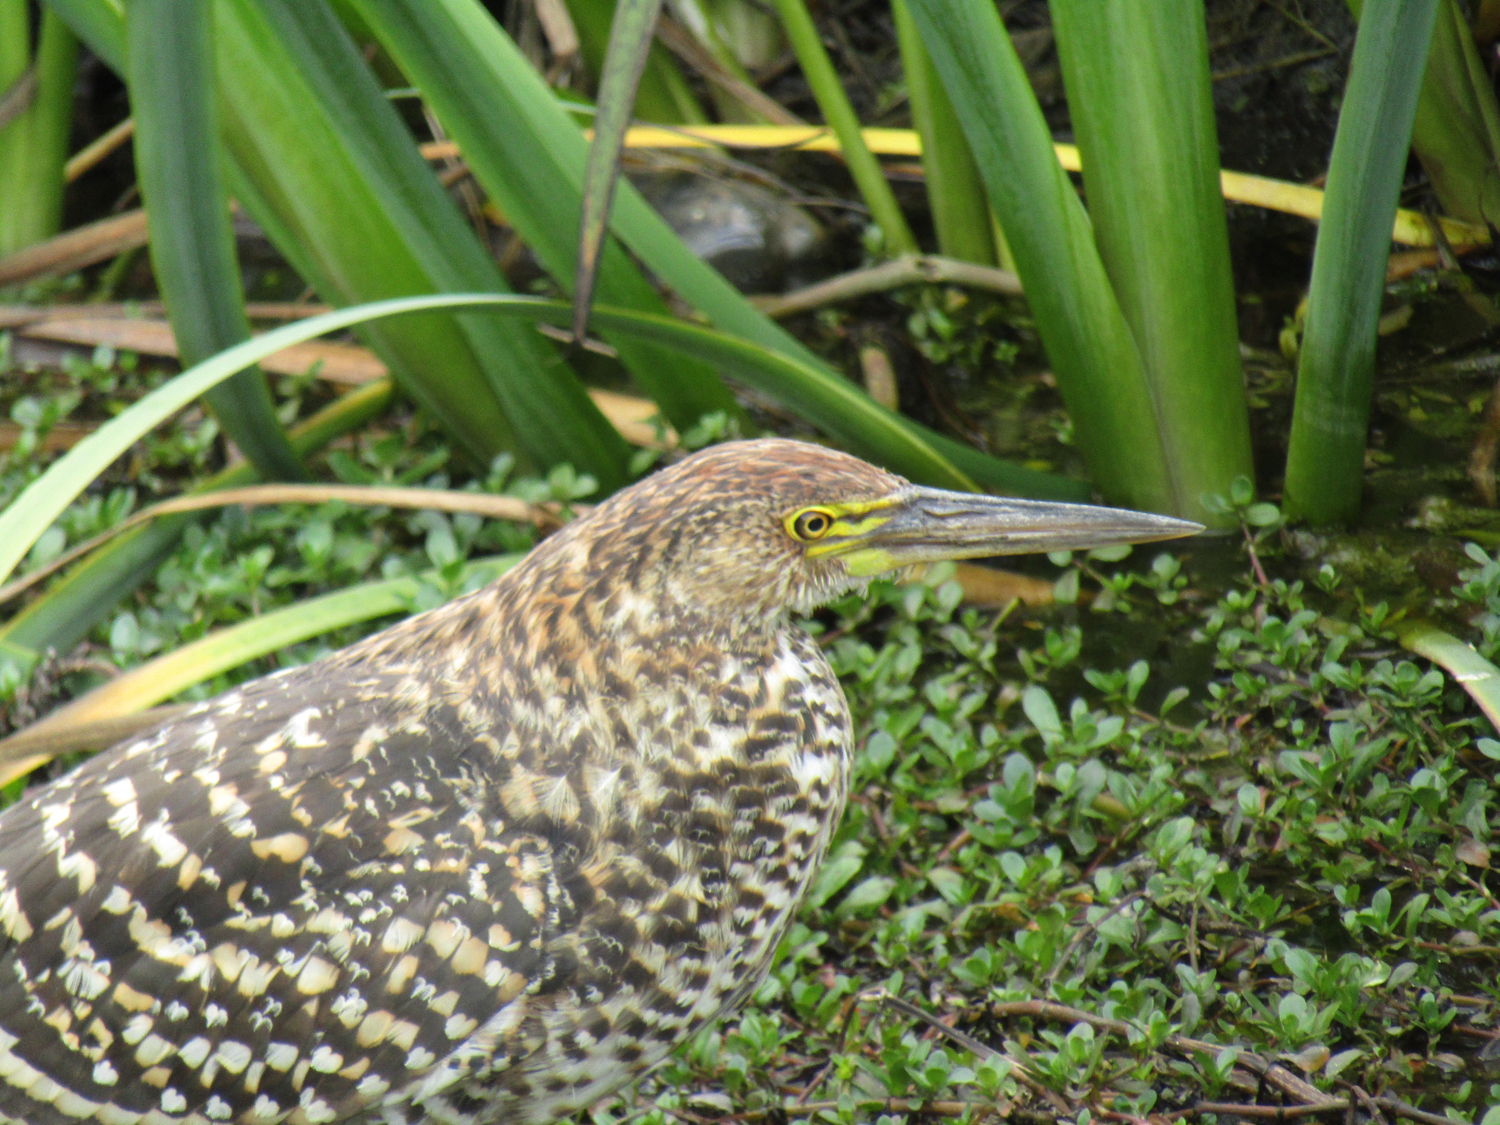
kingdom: Animalia
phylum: Chordata
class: Aves
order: Pelecaniformes
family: Ardeidae
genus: Tigrisoma
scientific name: Tigrisoma lineatum
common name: Rufescent tiger-heron
